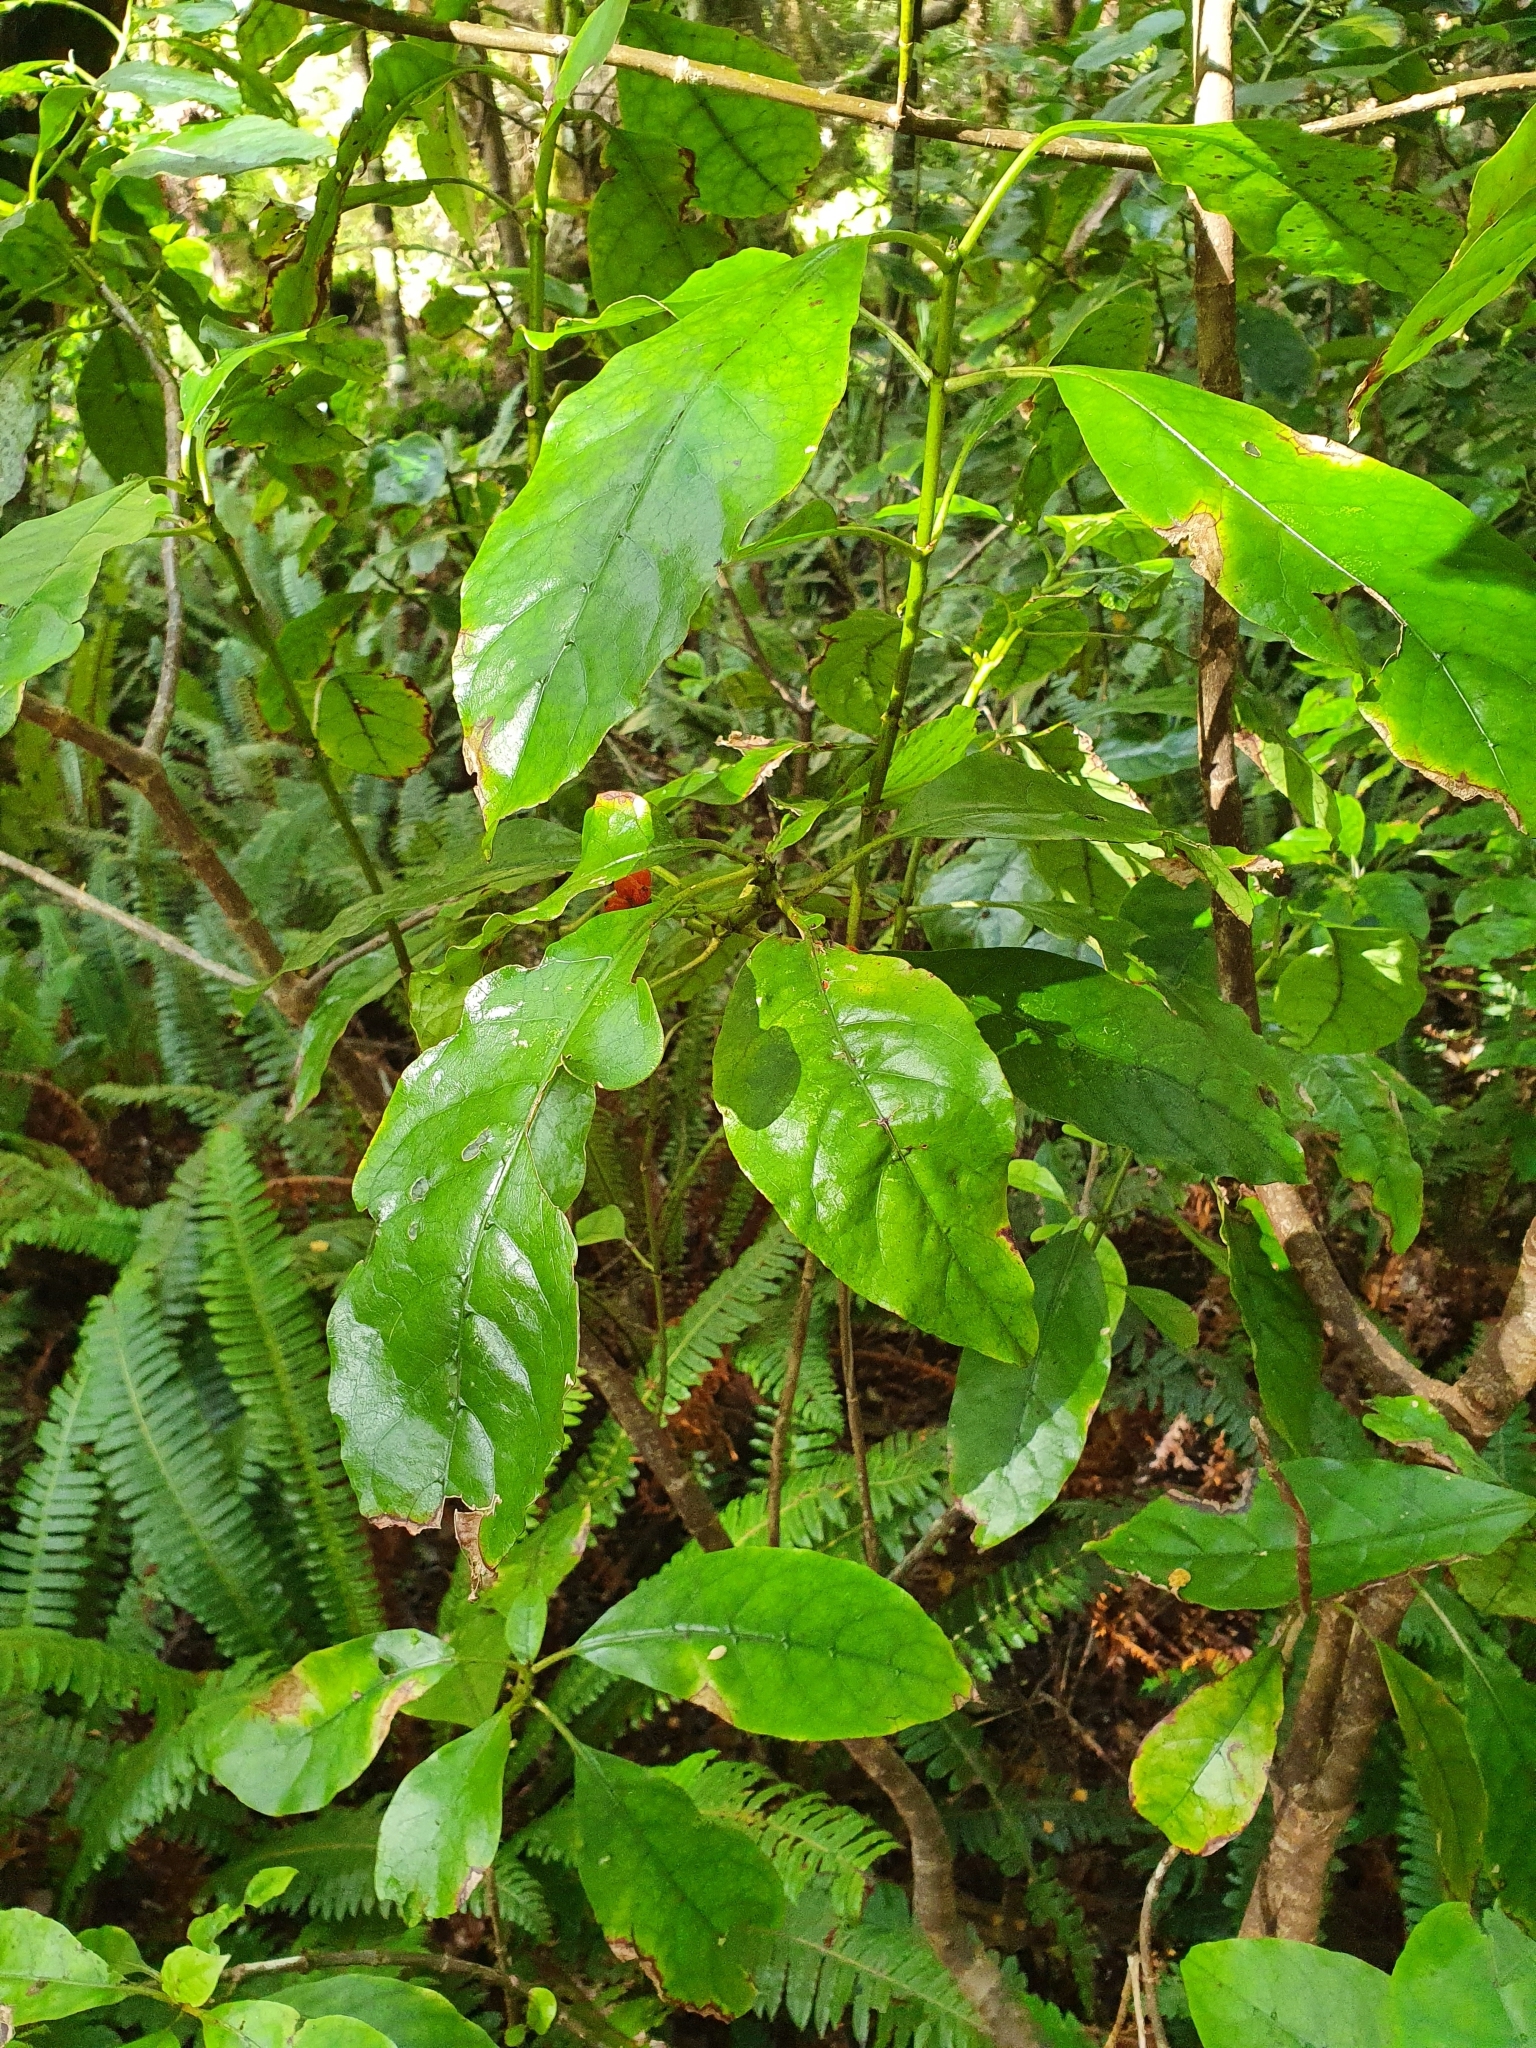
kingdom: Plantae
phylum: Tracheophyta
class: Magnoliopsida
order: Gentianales
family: Rubiaceae
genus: Coprosma
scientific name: Coprosma autumnalis
